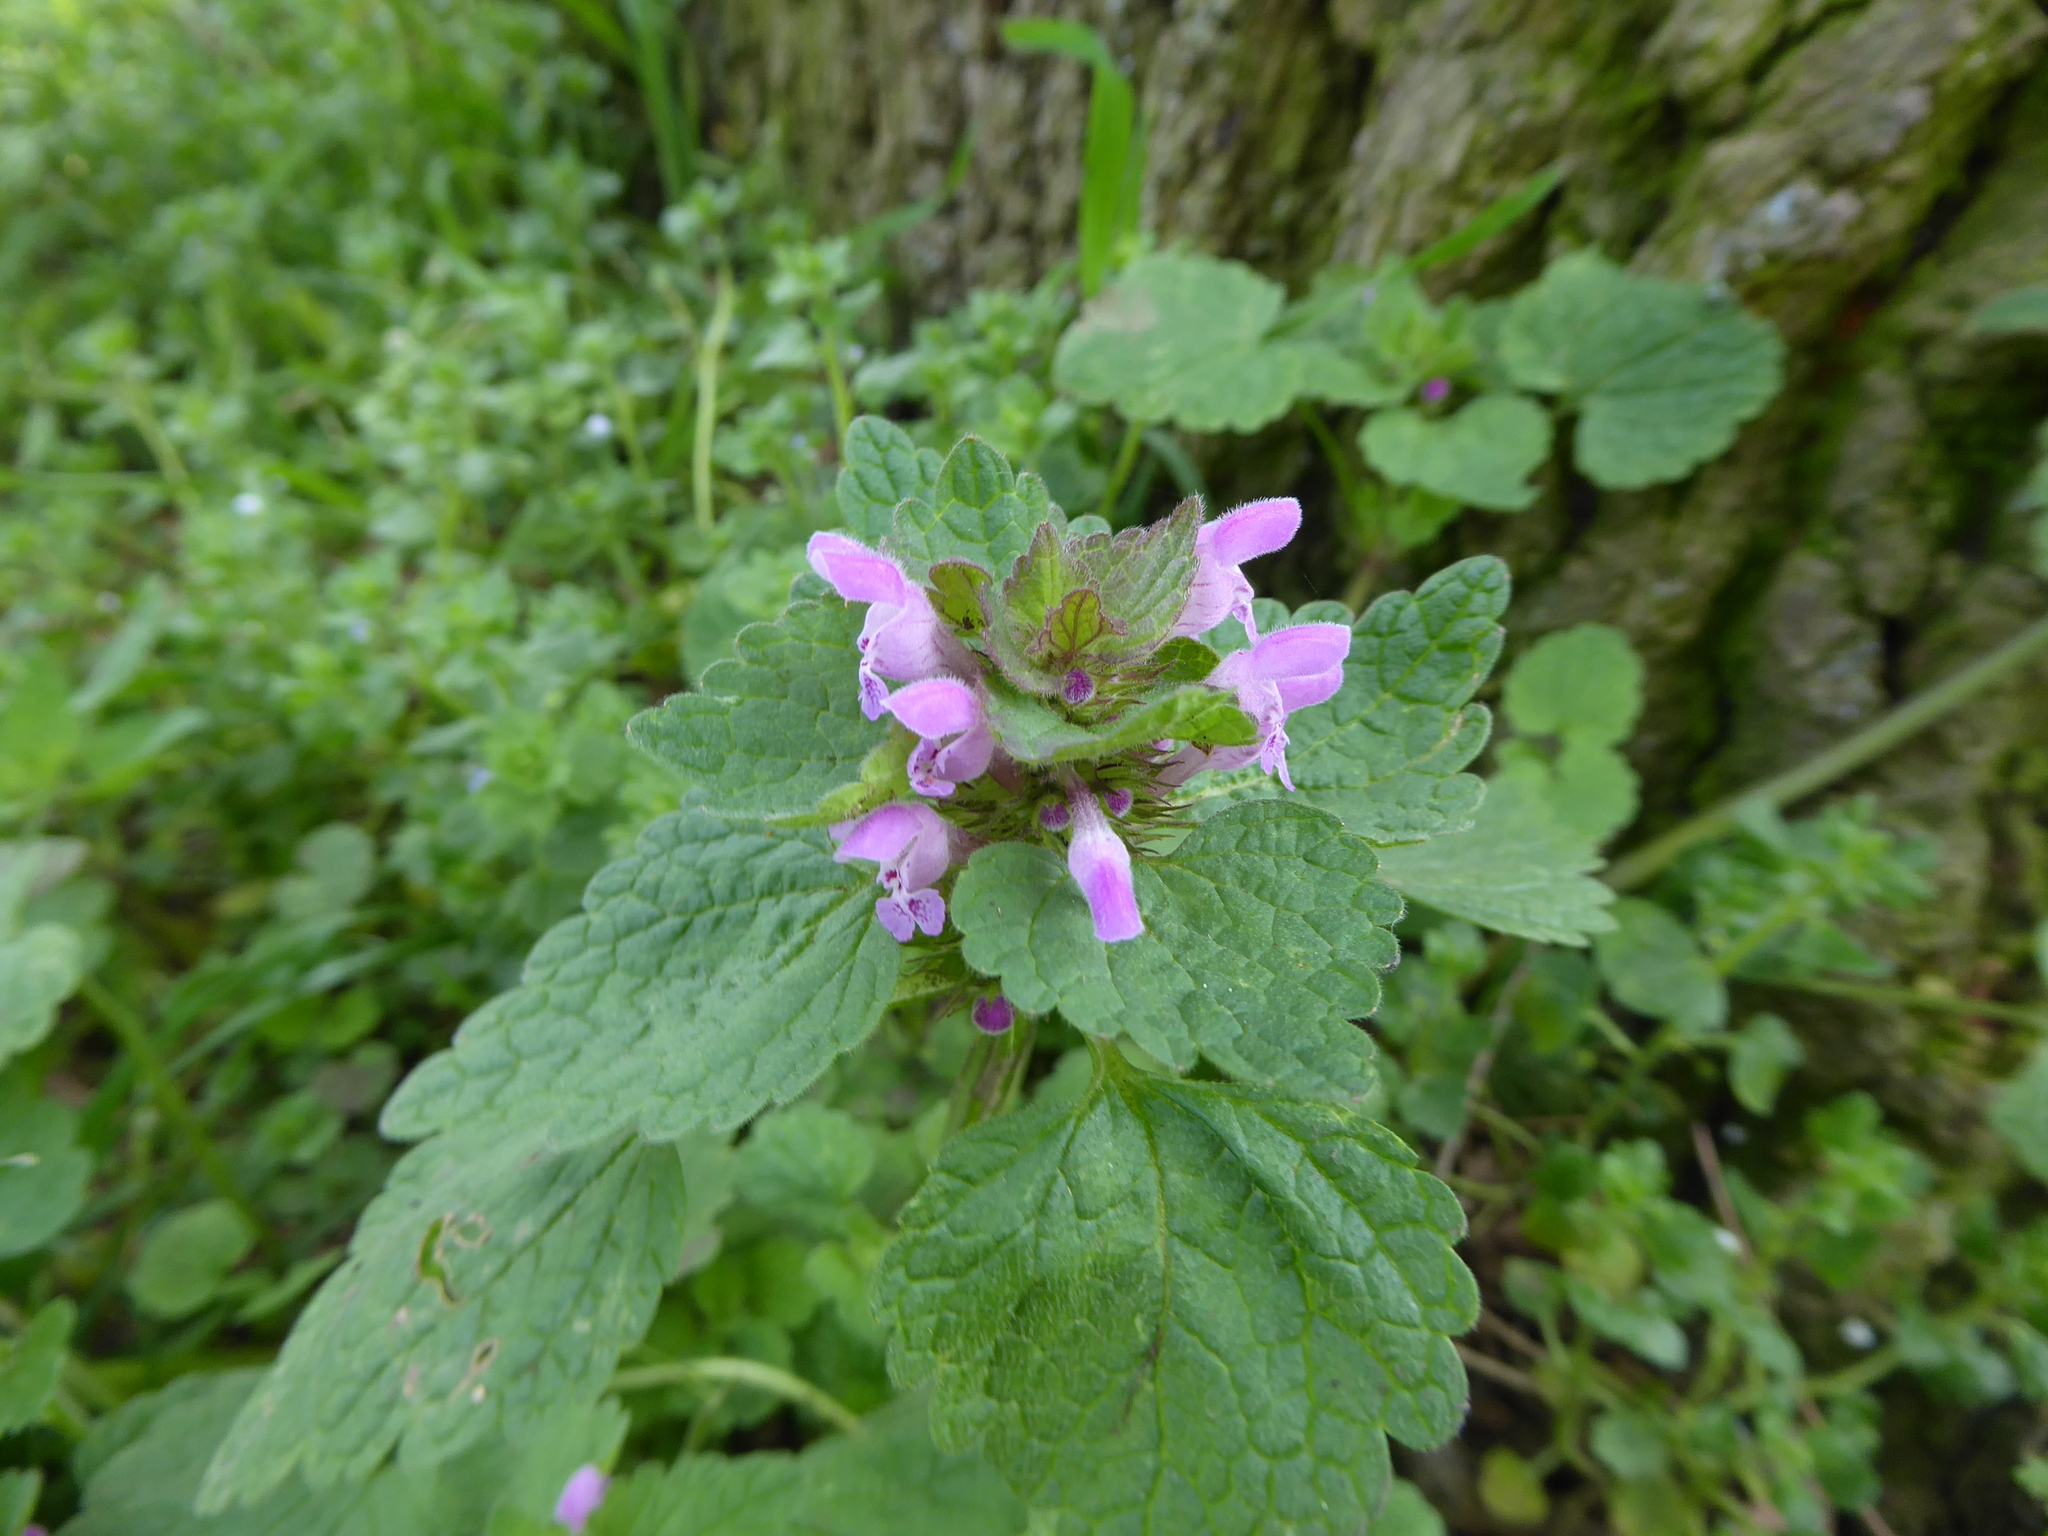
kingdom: Plantae
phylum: Tracheophyta
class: Magnoliopsida
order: Lamiales
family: Lamiaceae
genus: Lamium
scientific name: Lamium purpureum
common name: Red dead-nettle
